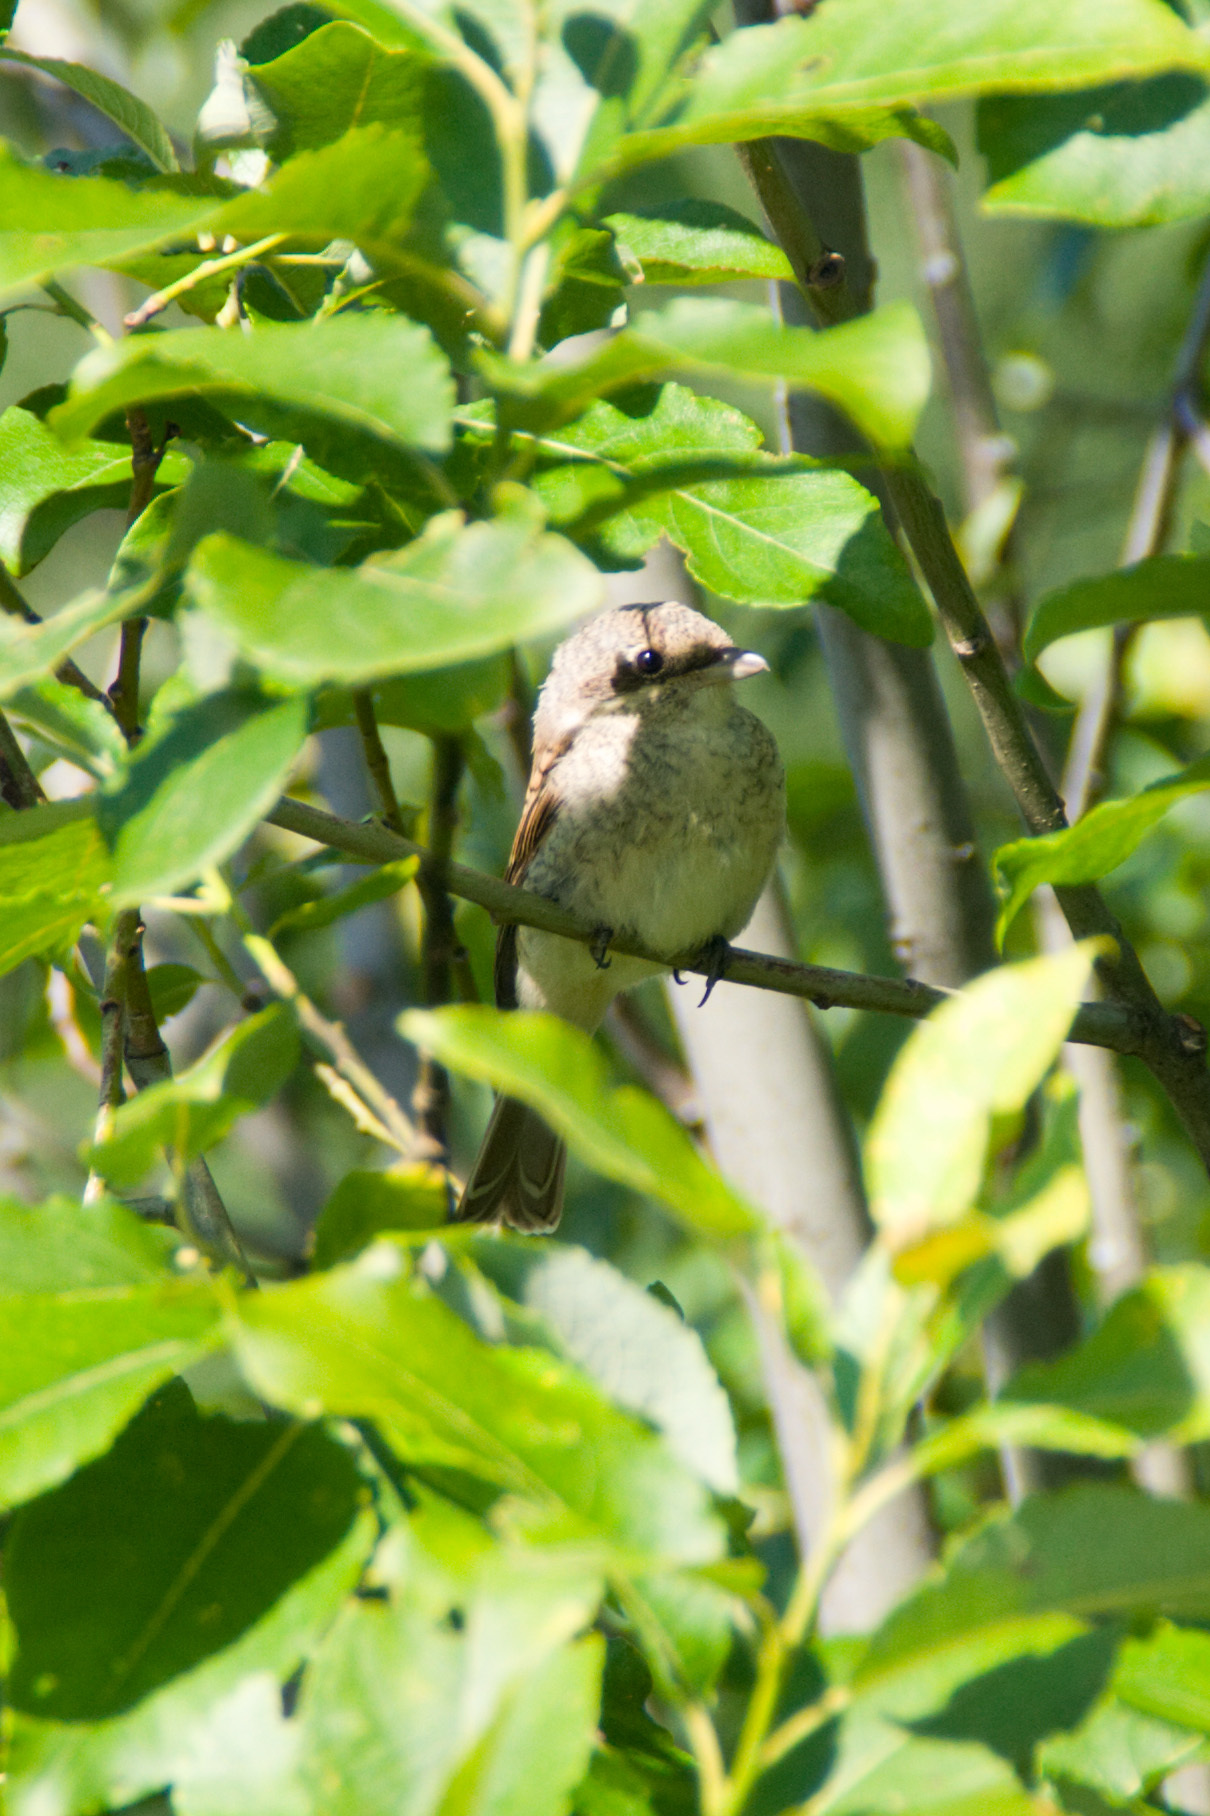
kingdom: Animalia
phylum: Chordata
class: Aves
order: Passeriformes
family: Laniidae
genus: Lanius
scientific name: Lanius collurio
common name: Red-backed shrike
